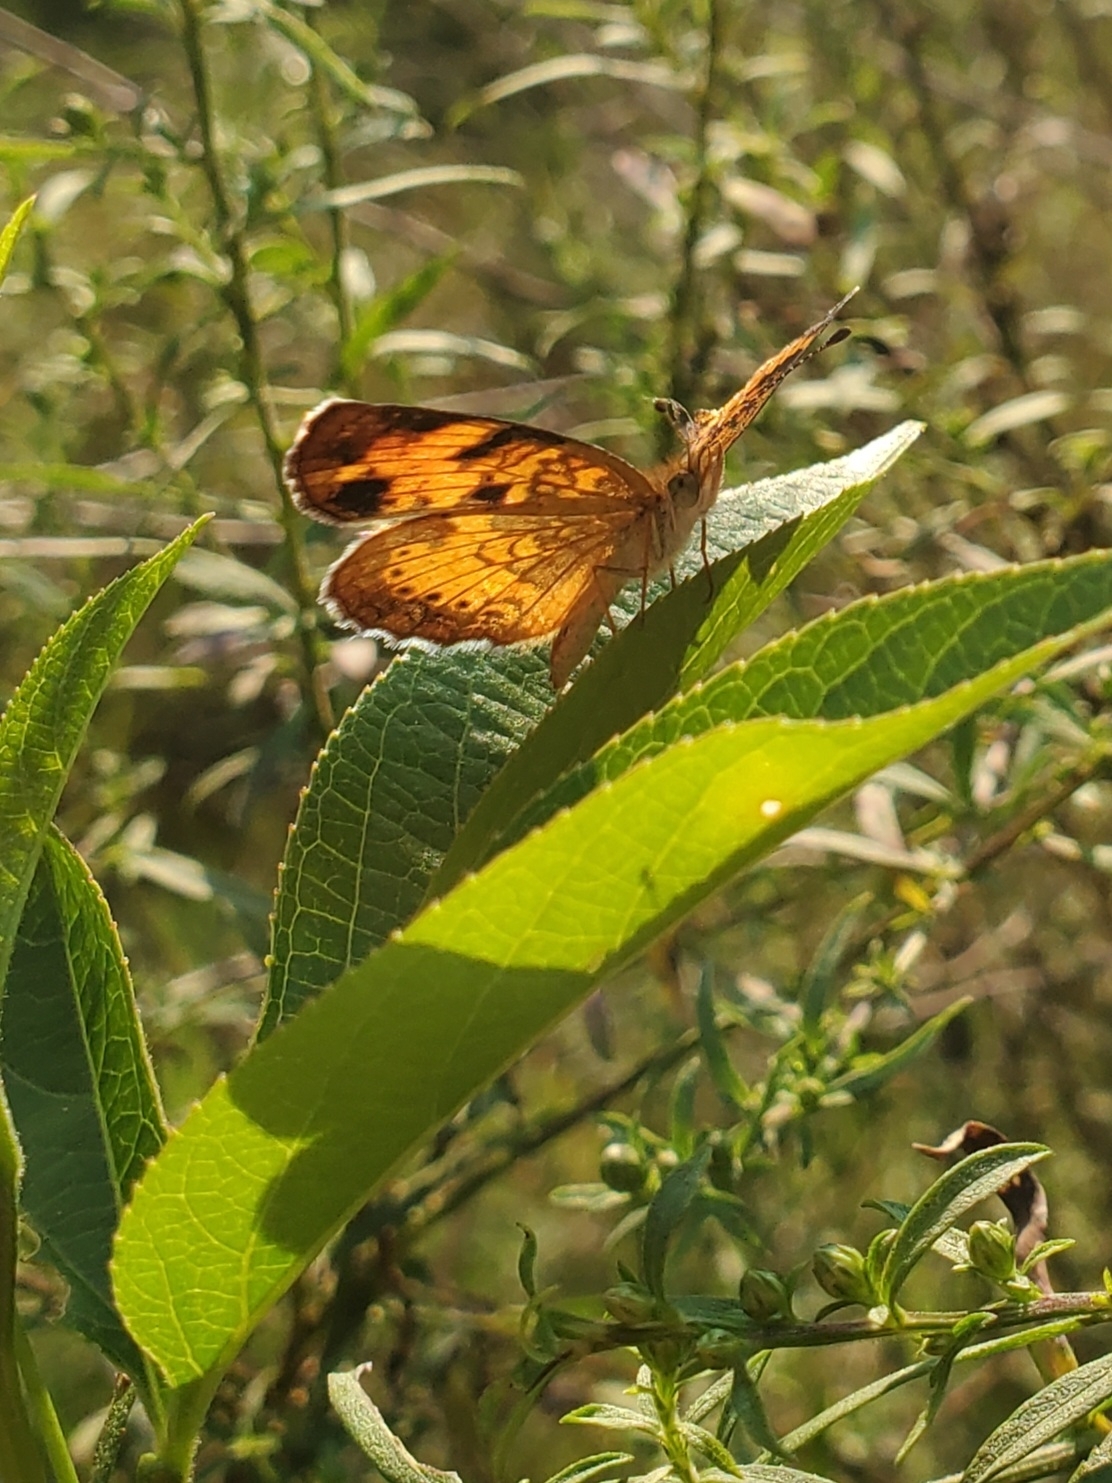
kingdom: Animalia
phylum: Arthropoda
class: Insecta
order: Lepidoptera
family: Nymphalidae
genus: Phyciodes
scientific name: Phyciodes tharos
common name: Pearl crescent
